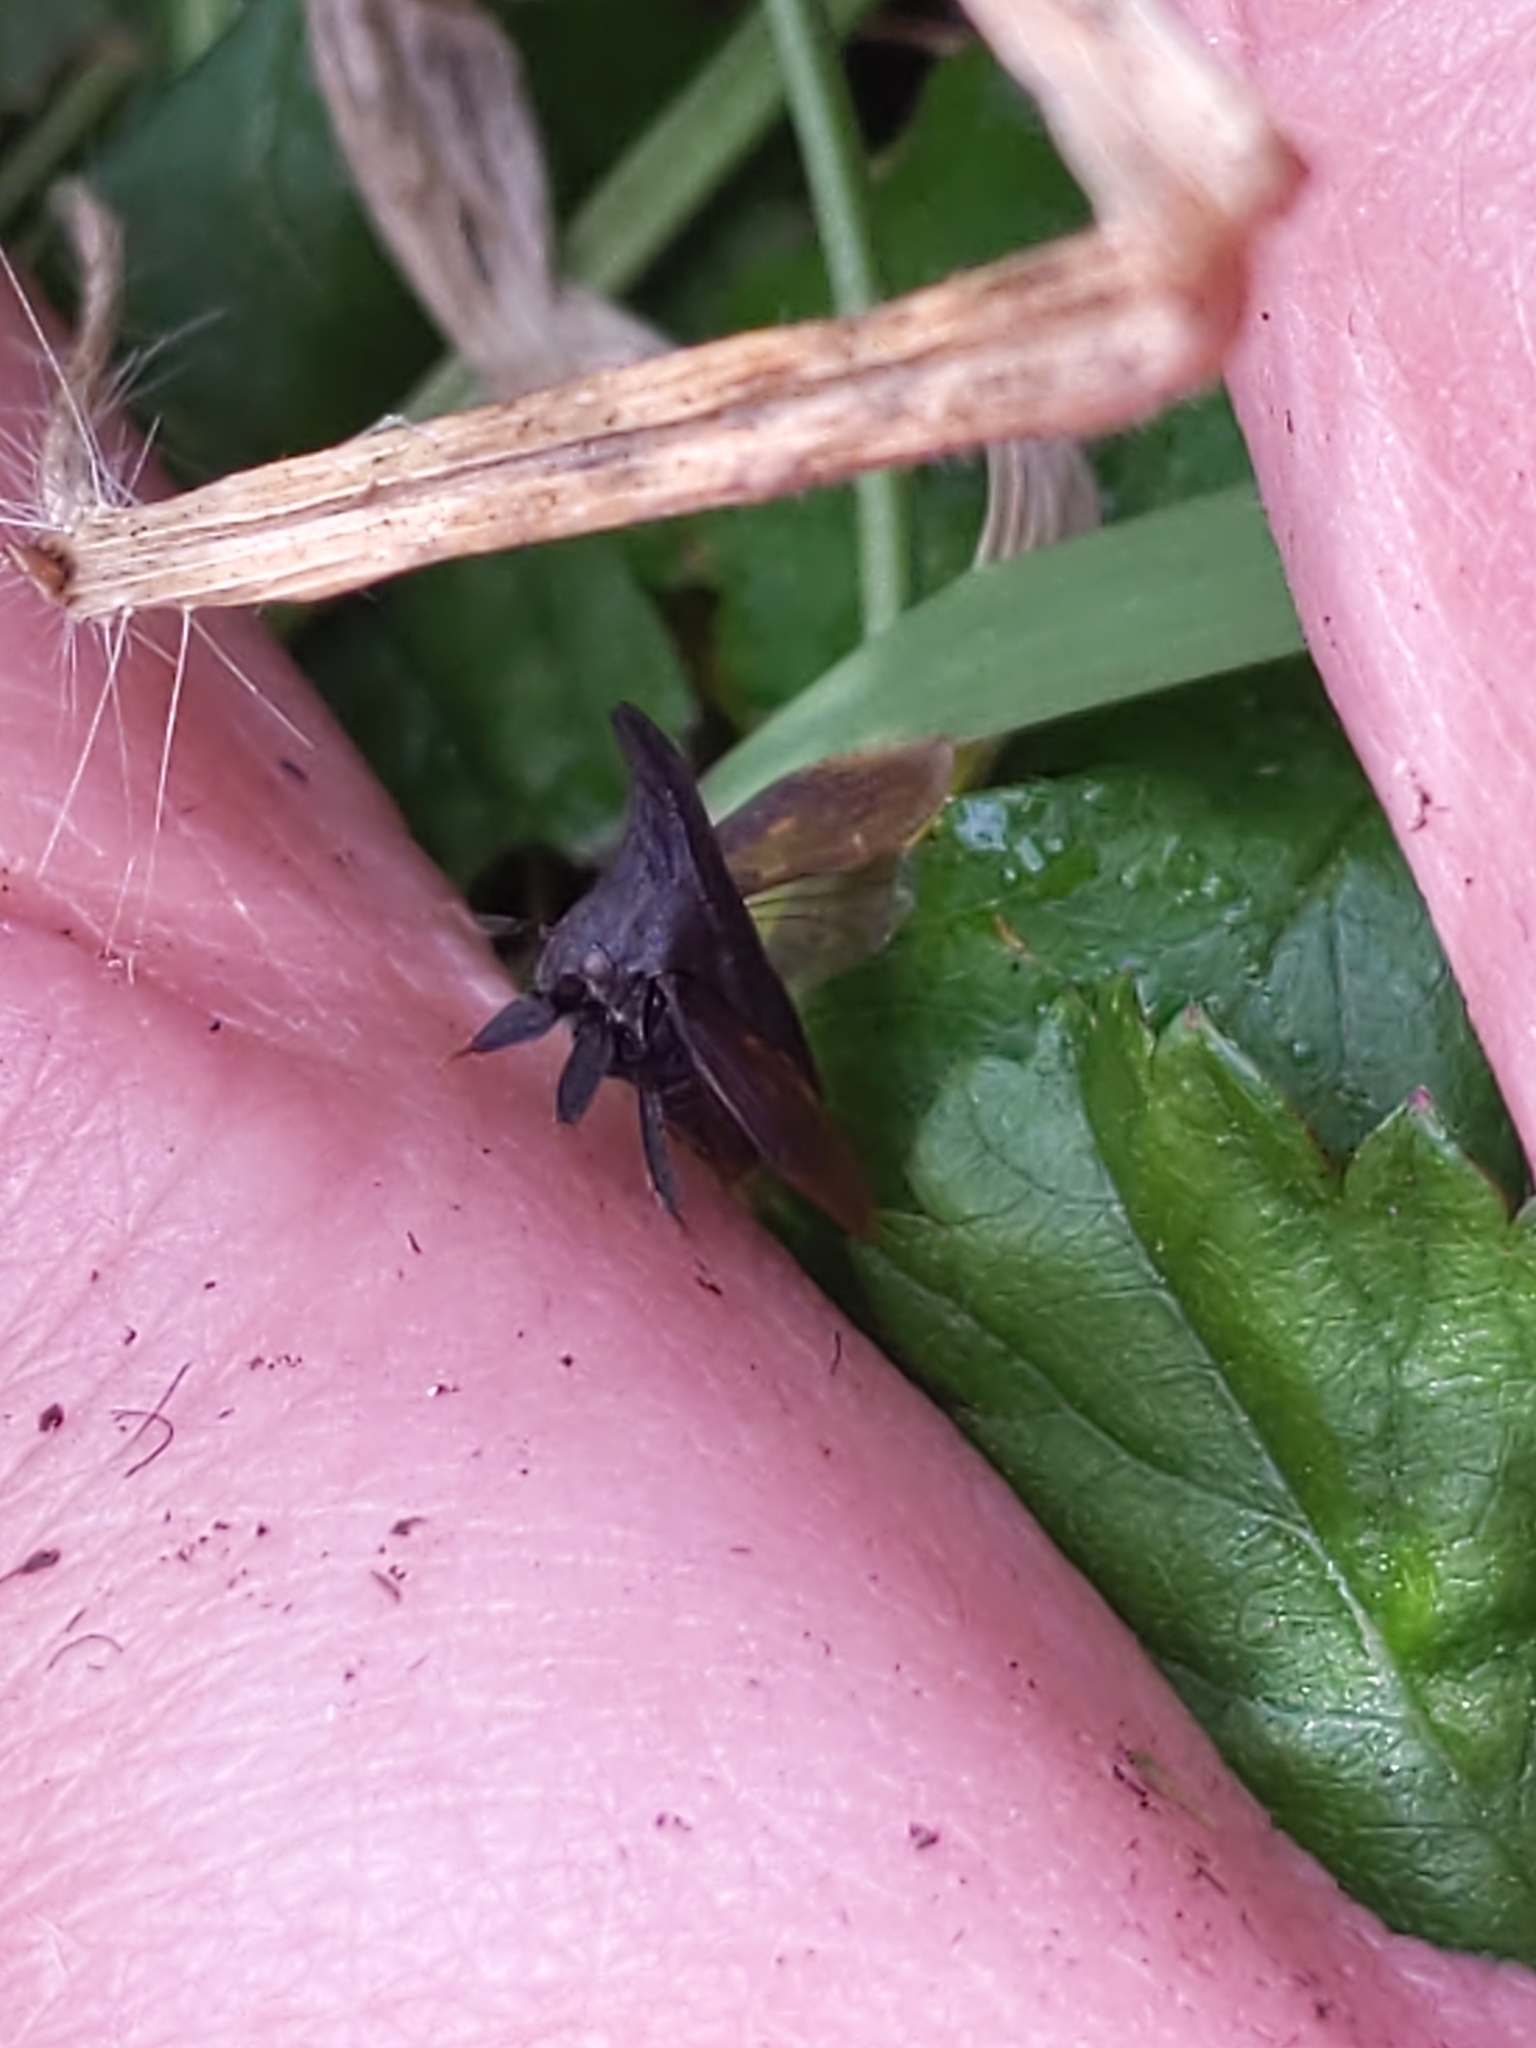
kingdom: Animalia
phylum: Arthropoda
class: Insecta
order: Hemiptera
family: Membracidae
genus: Enchenopa
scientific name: Enchenopa latipes
